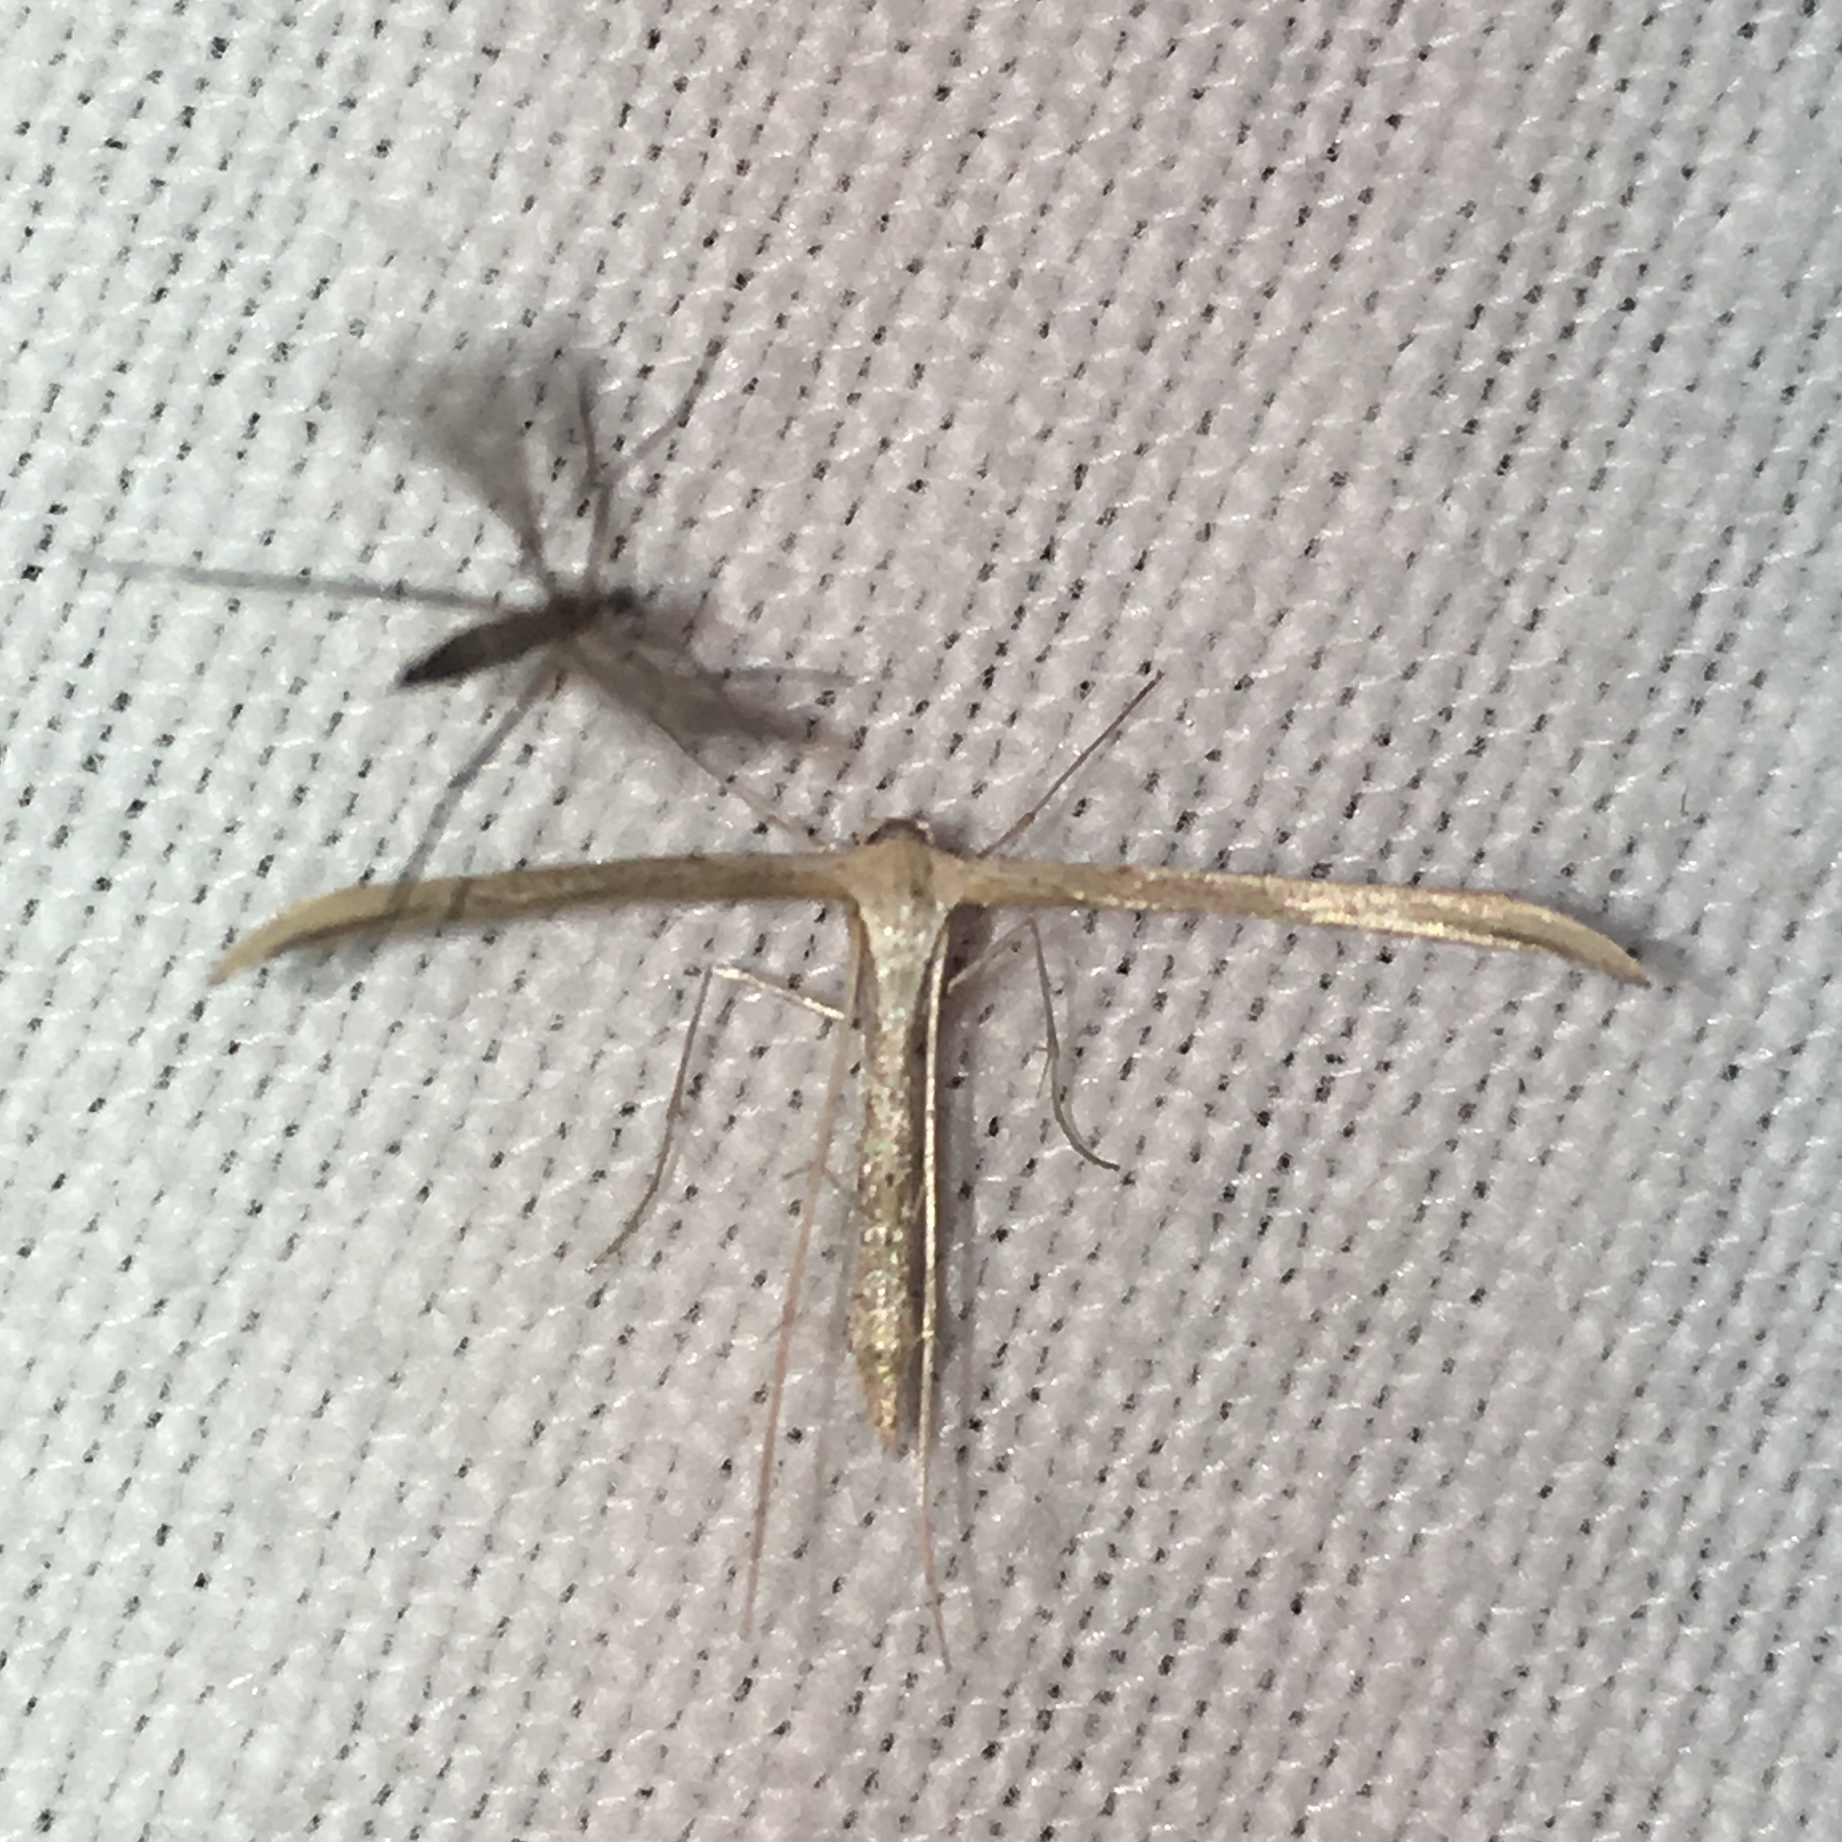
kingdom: Animalia
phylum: Arthropoda
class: Insecta
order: Lepidoptera
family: Pterophoridae
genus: Emmelina
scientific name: Emmelina monodactyla
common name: Common plume
